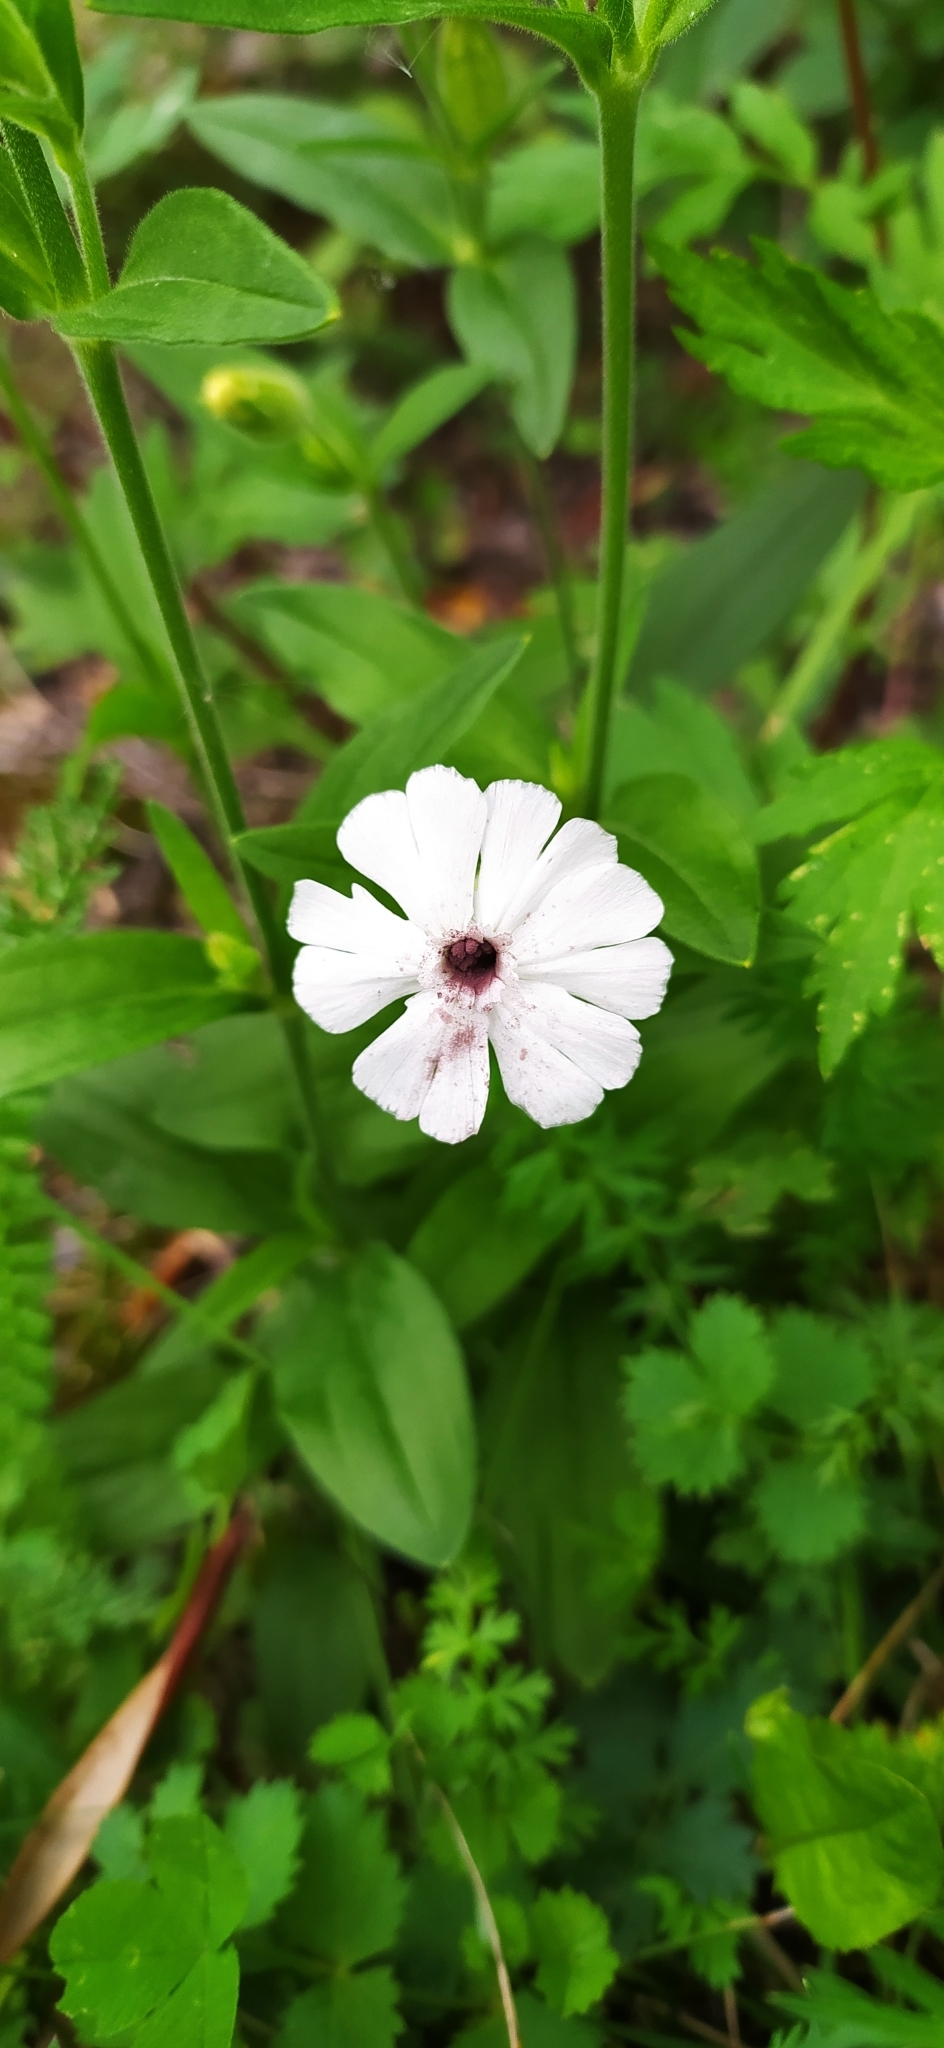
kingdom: Plantae
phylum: Tracheophyta
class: Magnoliopsida
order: Caryophyllales
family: Caryophyllaceae
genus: Silene
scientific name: Silene latifolia
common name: White campion
